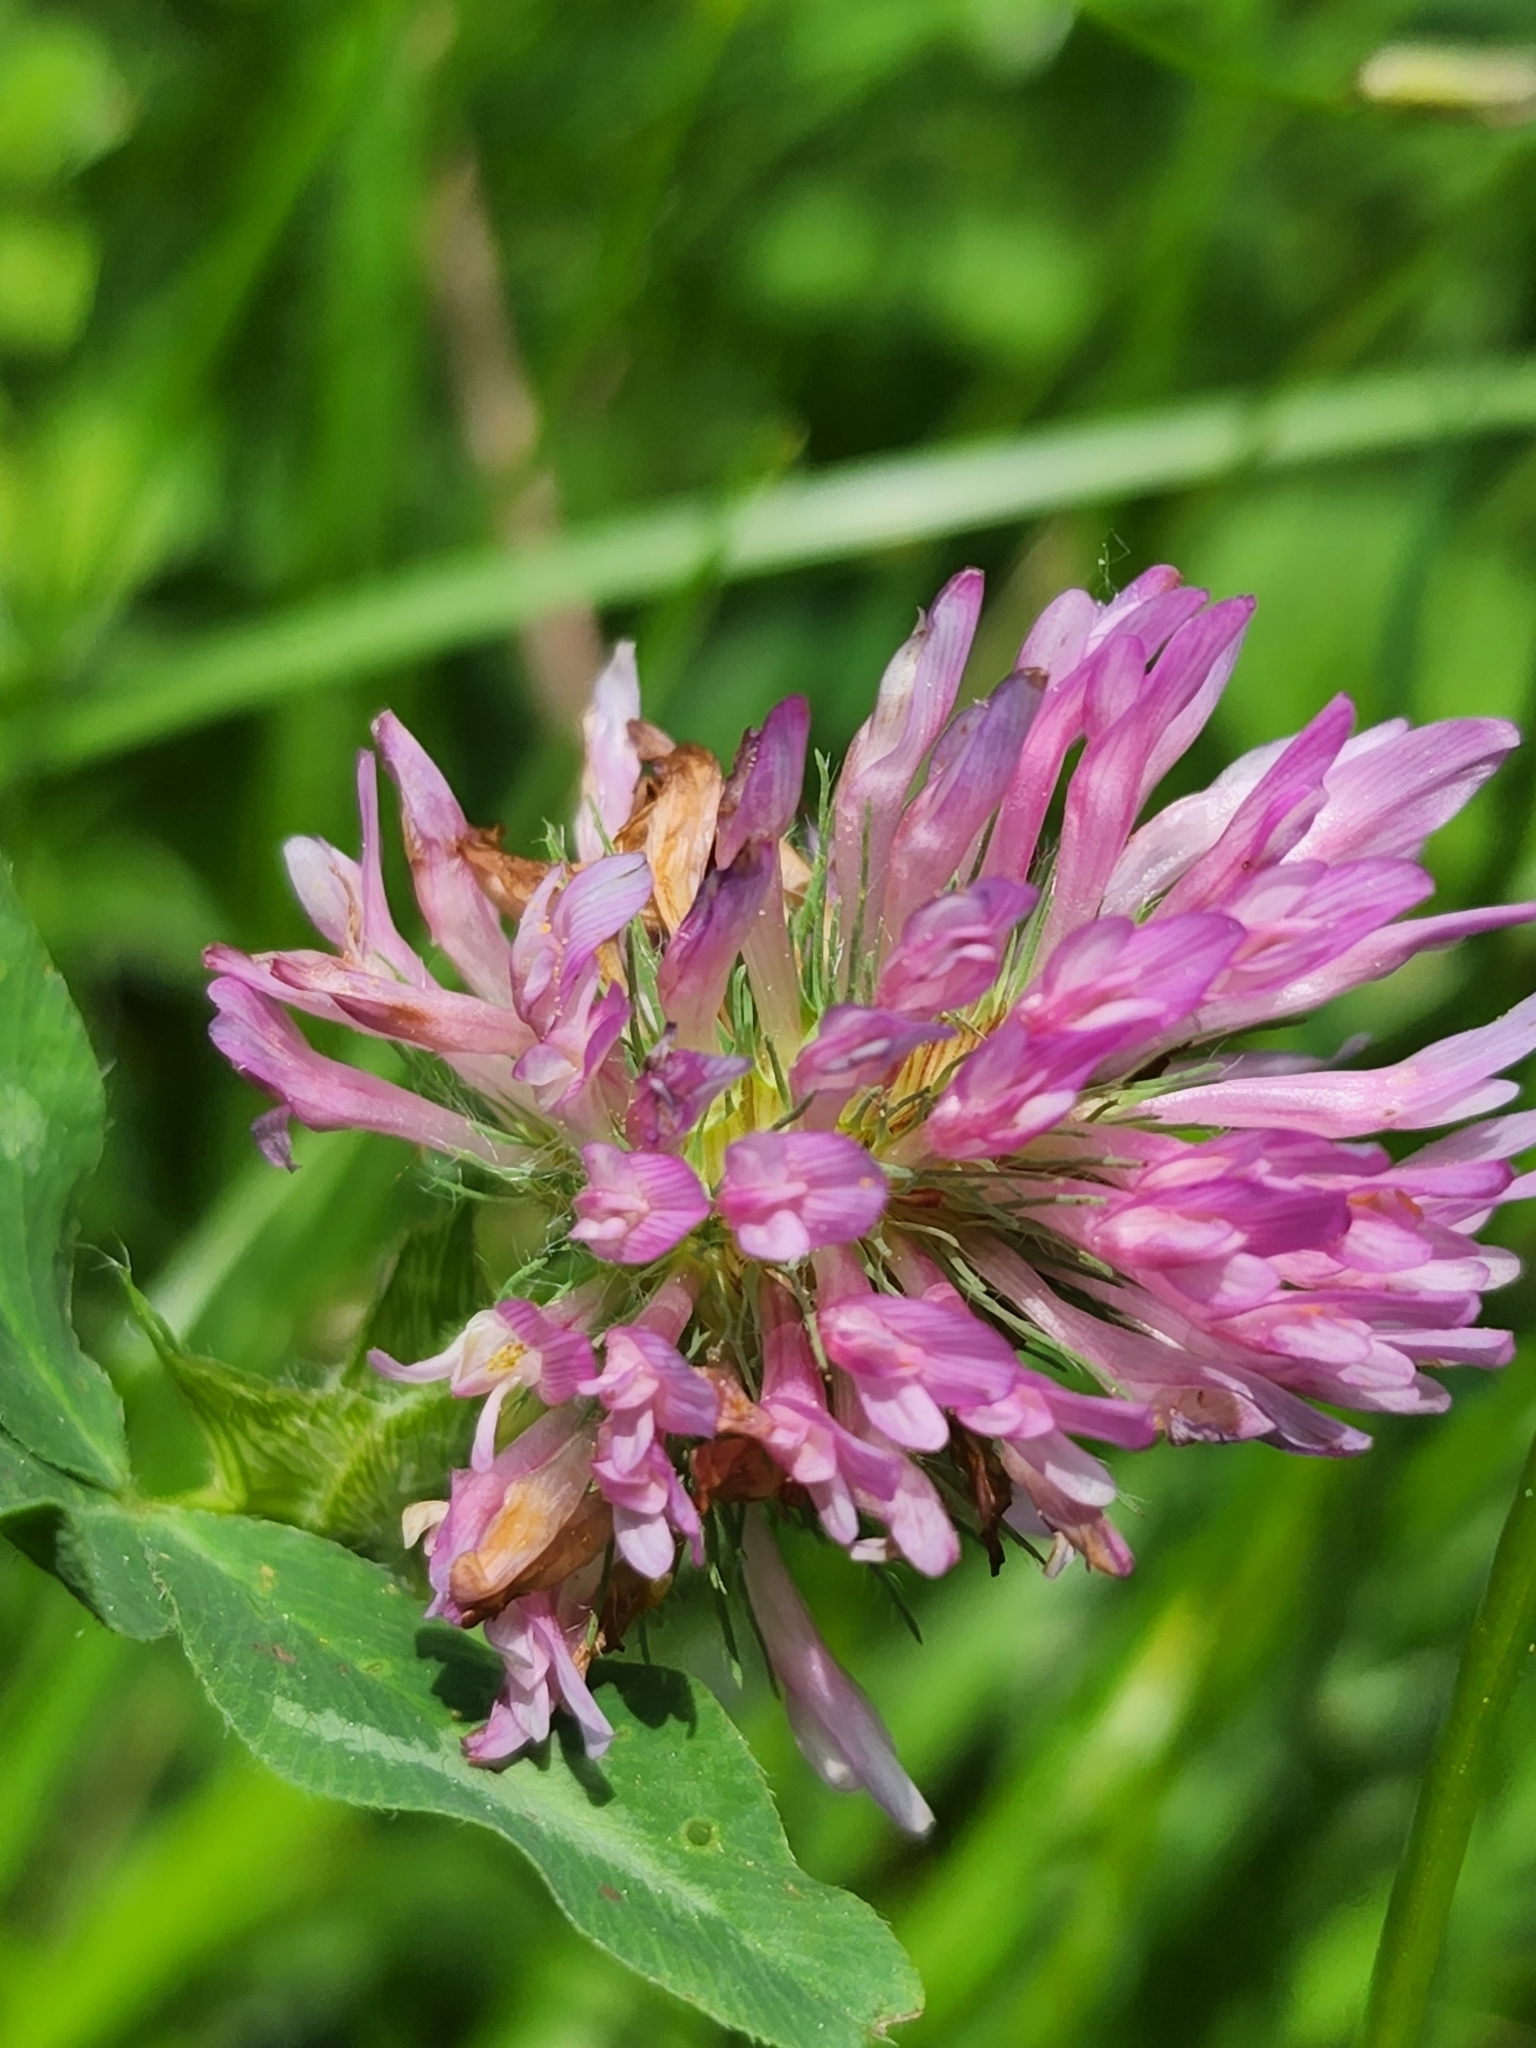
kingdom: Plantae
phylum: Tracheophyta
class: Magnoliopsida
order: Fabales
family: Fabaceae
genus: Trifolium
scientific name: Trifolium pratense
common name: Red clover
